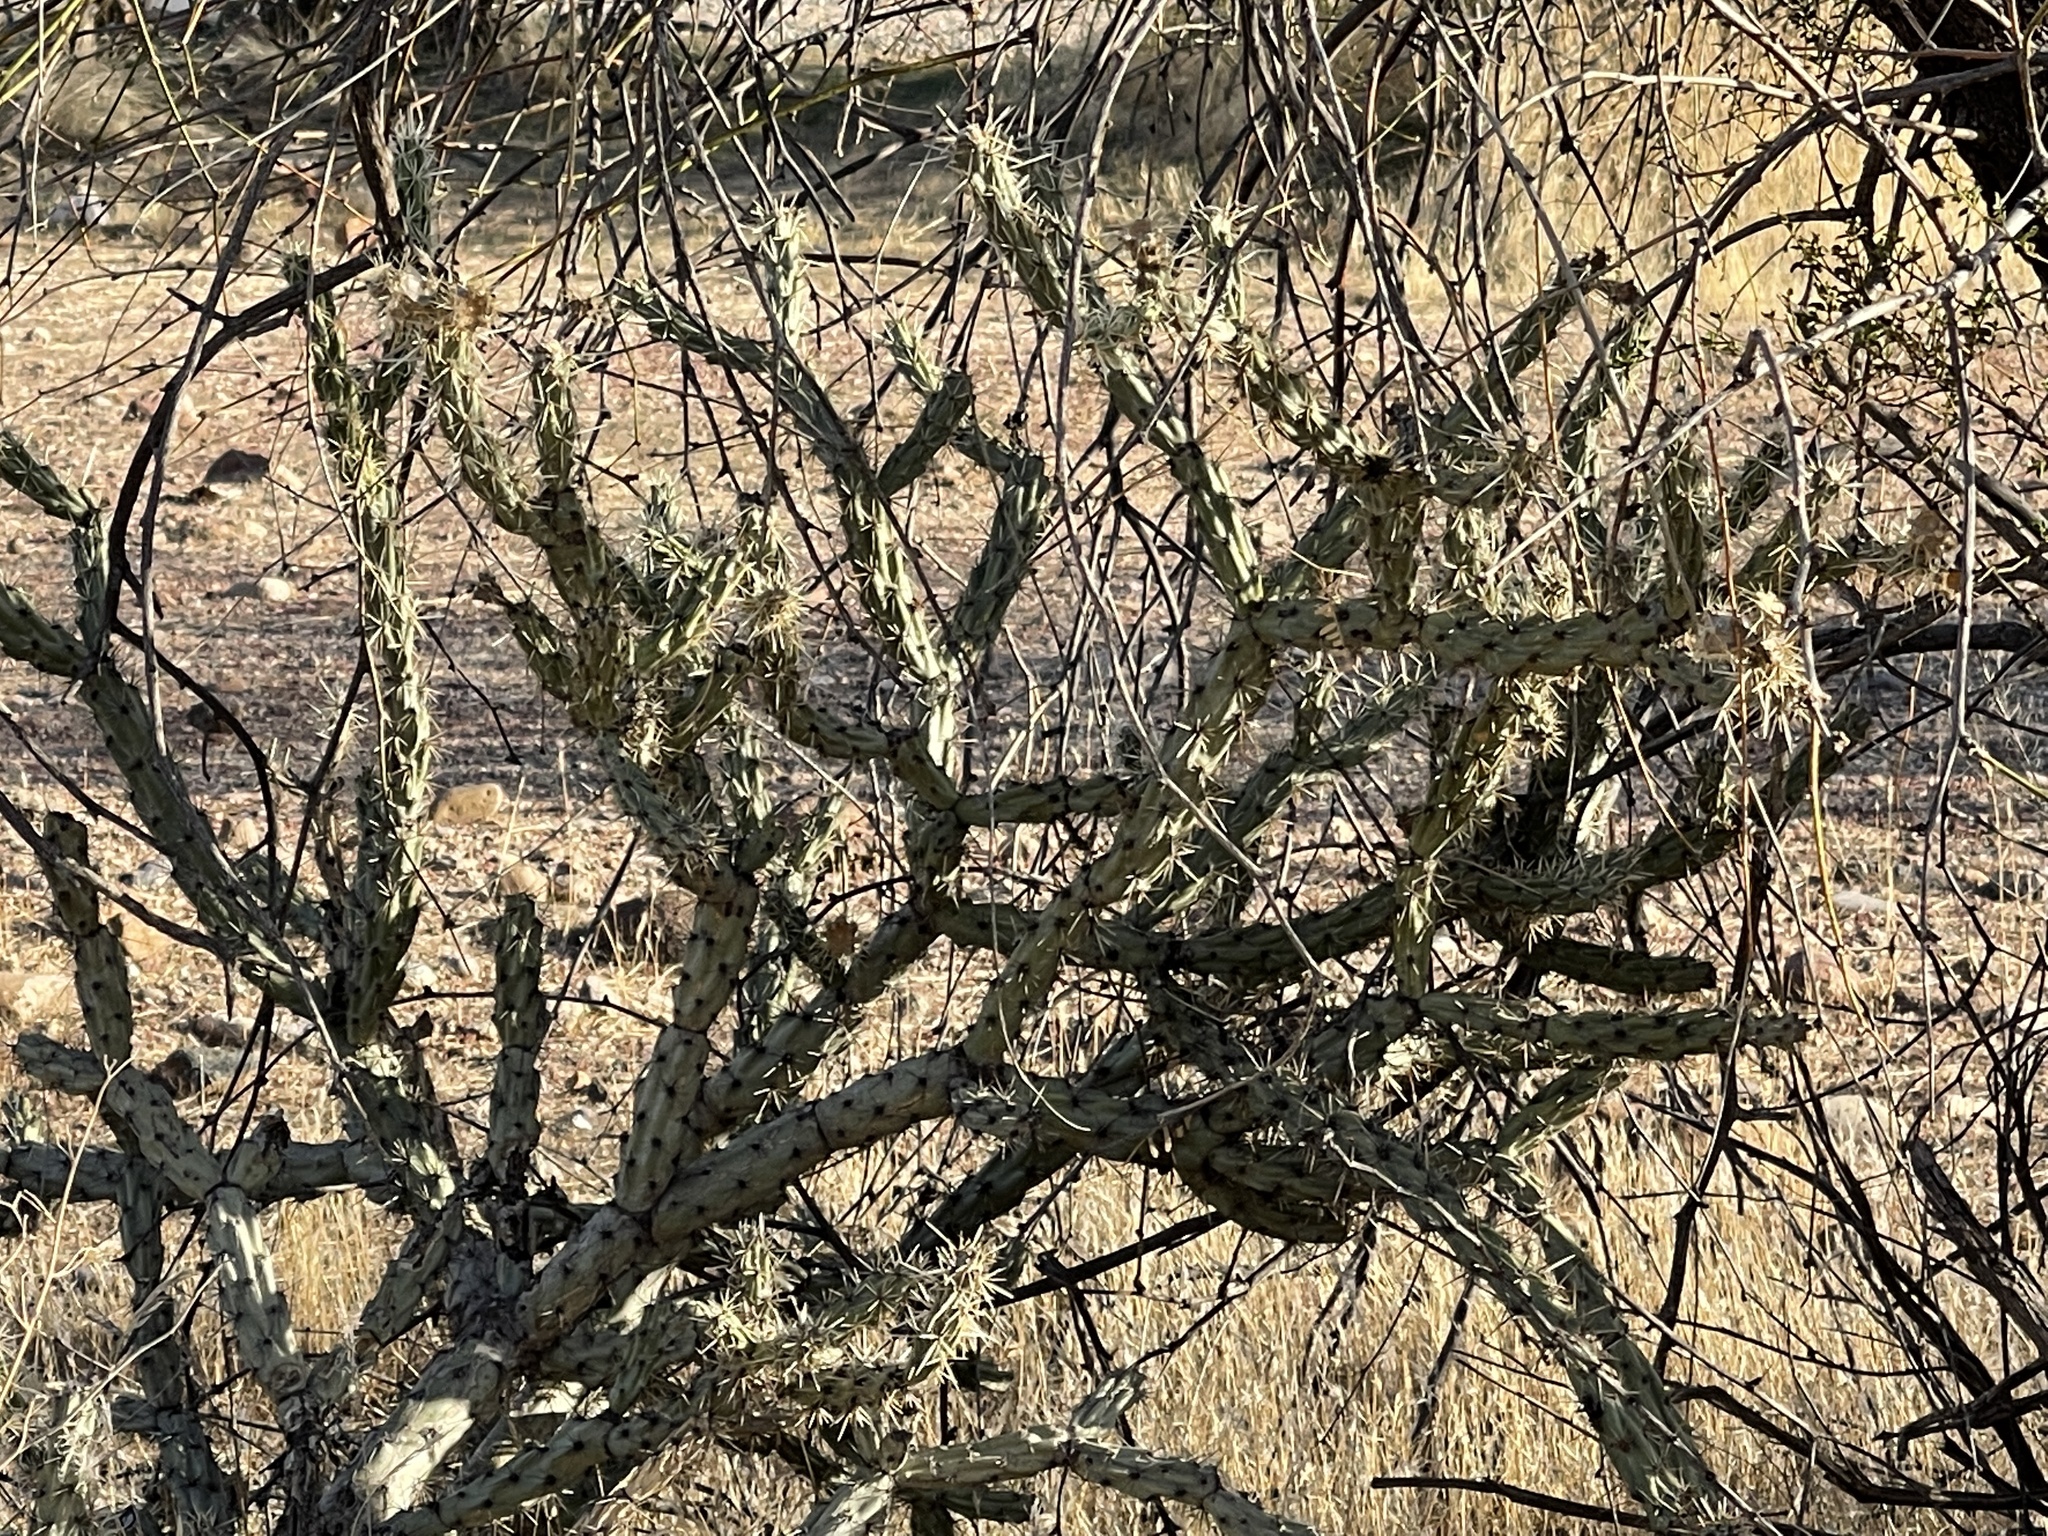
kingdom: Plantae
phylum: Tracheophyta
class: Magnoliopsida
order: Caryophyllales
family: Cactaceae
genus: Cylindropuntia
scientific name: Cylindropuntia acanthocarpa
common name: Buckhorn cholla
